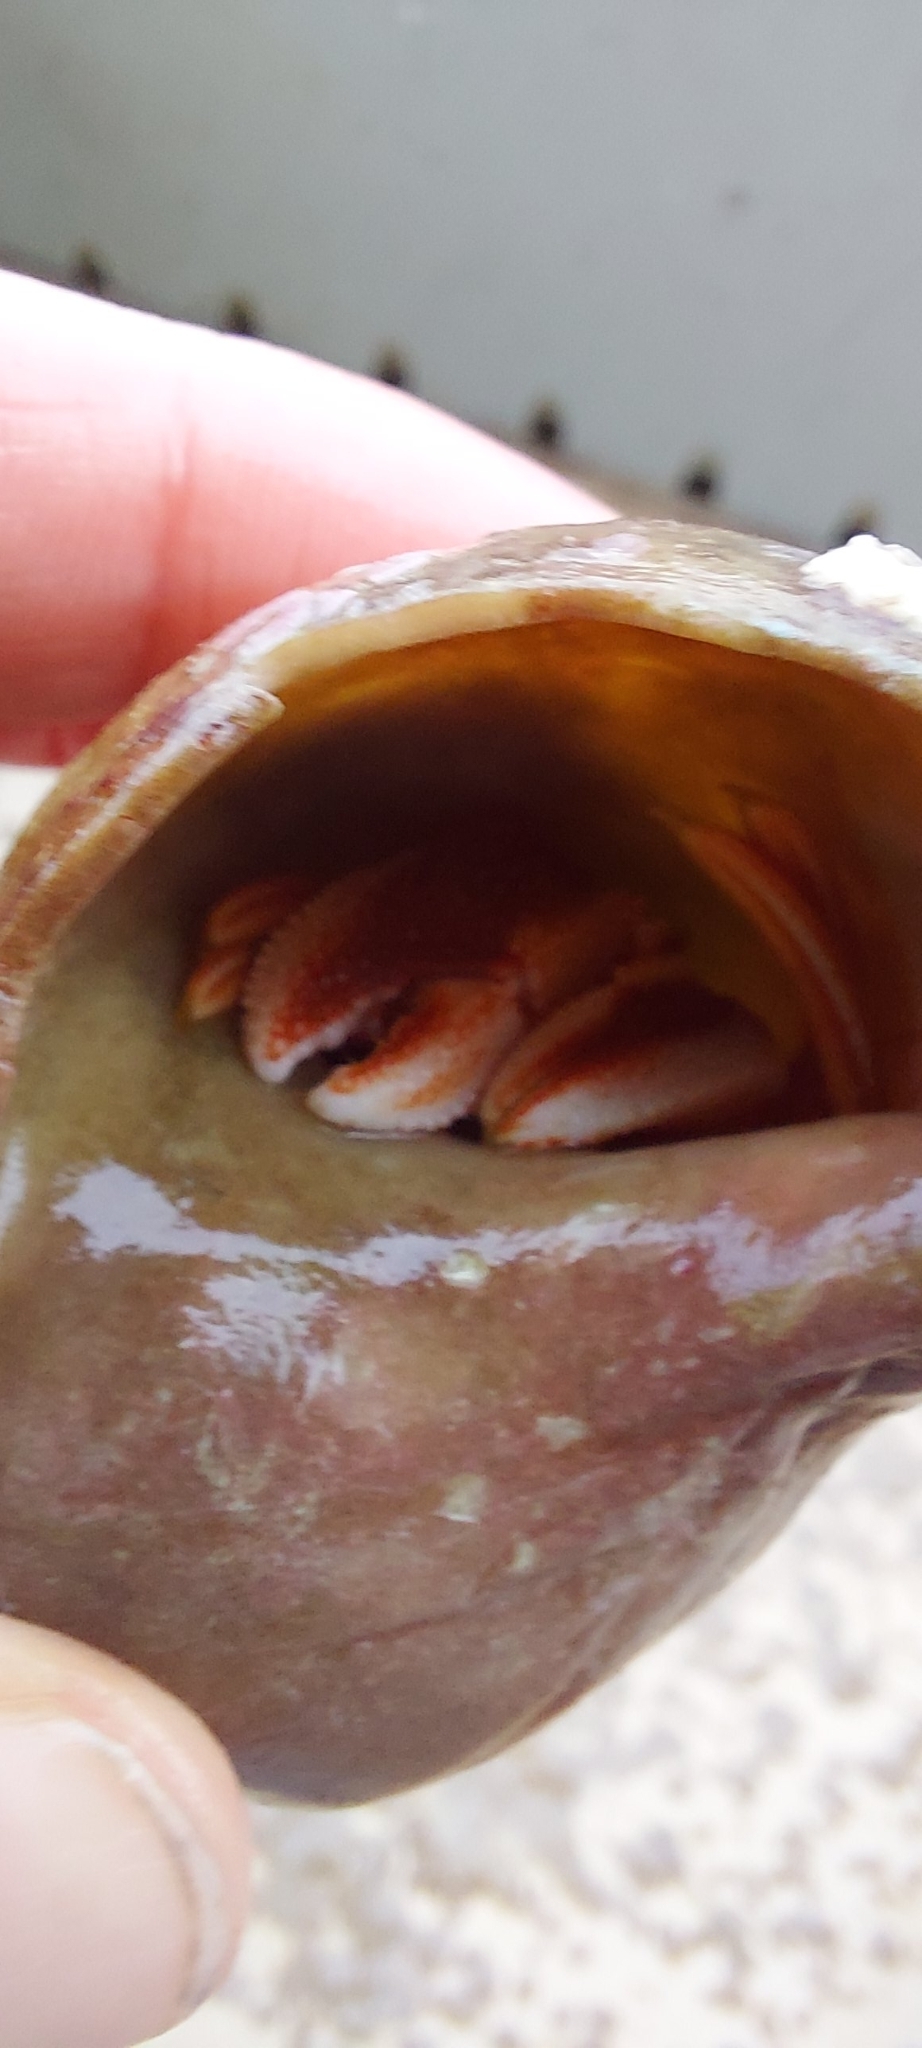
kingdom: Animalia
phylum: Arthropoda
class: Malacostraca
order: Decapoda
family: Paguridae
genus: Pagurus
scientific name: Pagurus acadianus
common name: Acadian hermit crab
